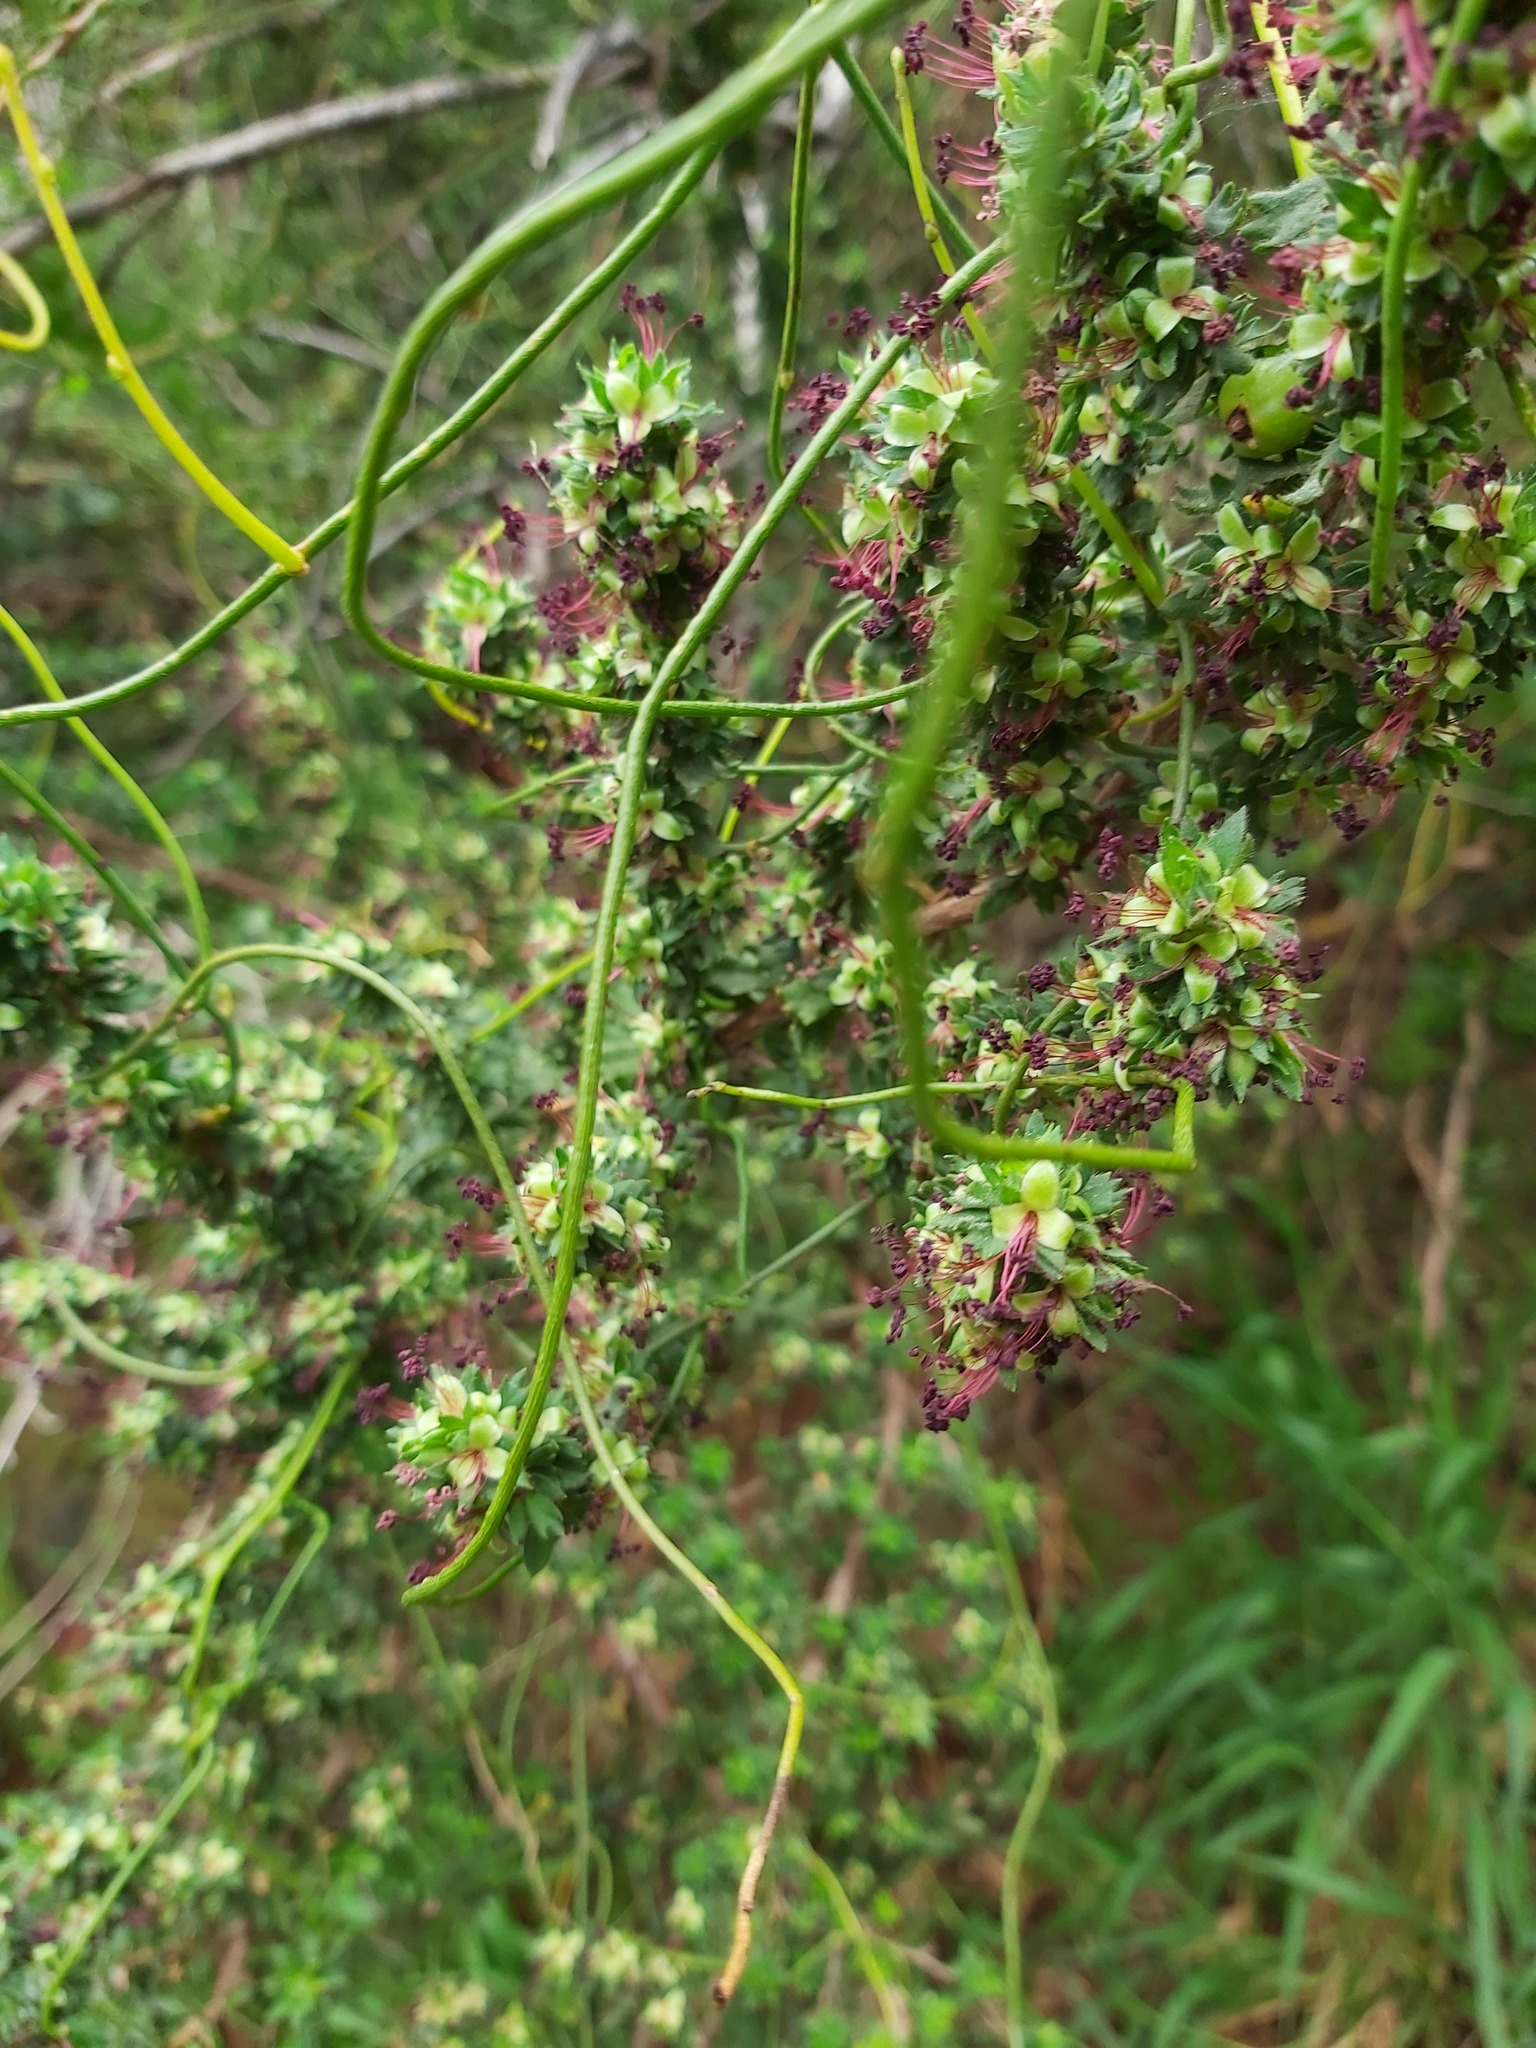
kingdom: Plantae
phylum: Tracheophyta
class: Magnoliopsida
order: Rosales
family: Rosaceae
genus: Cliffortia
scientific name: Cliffortia polygonifolia
